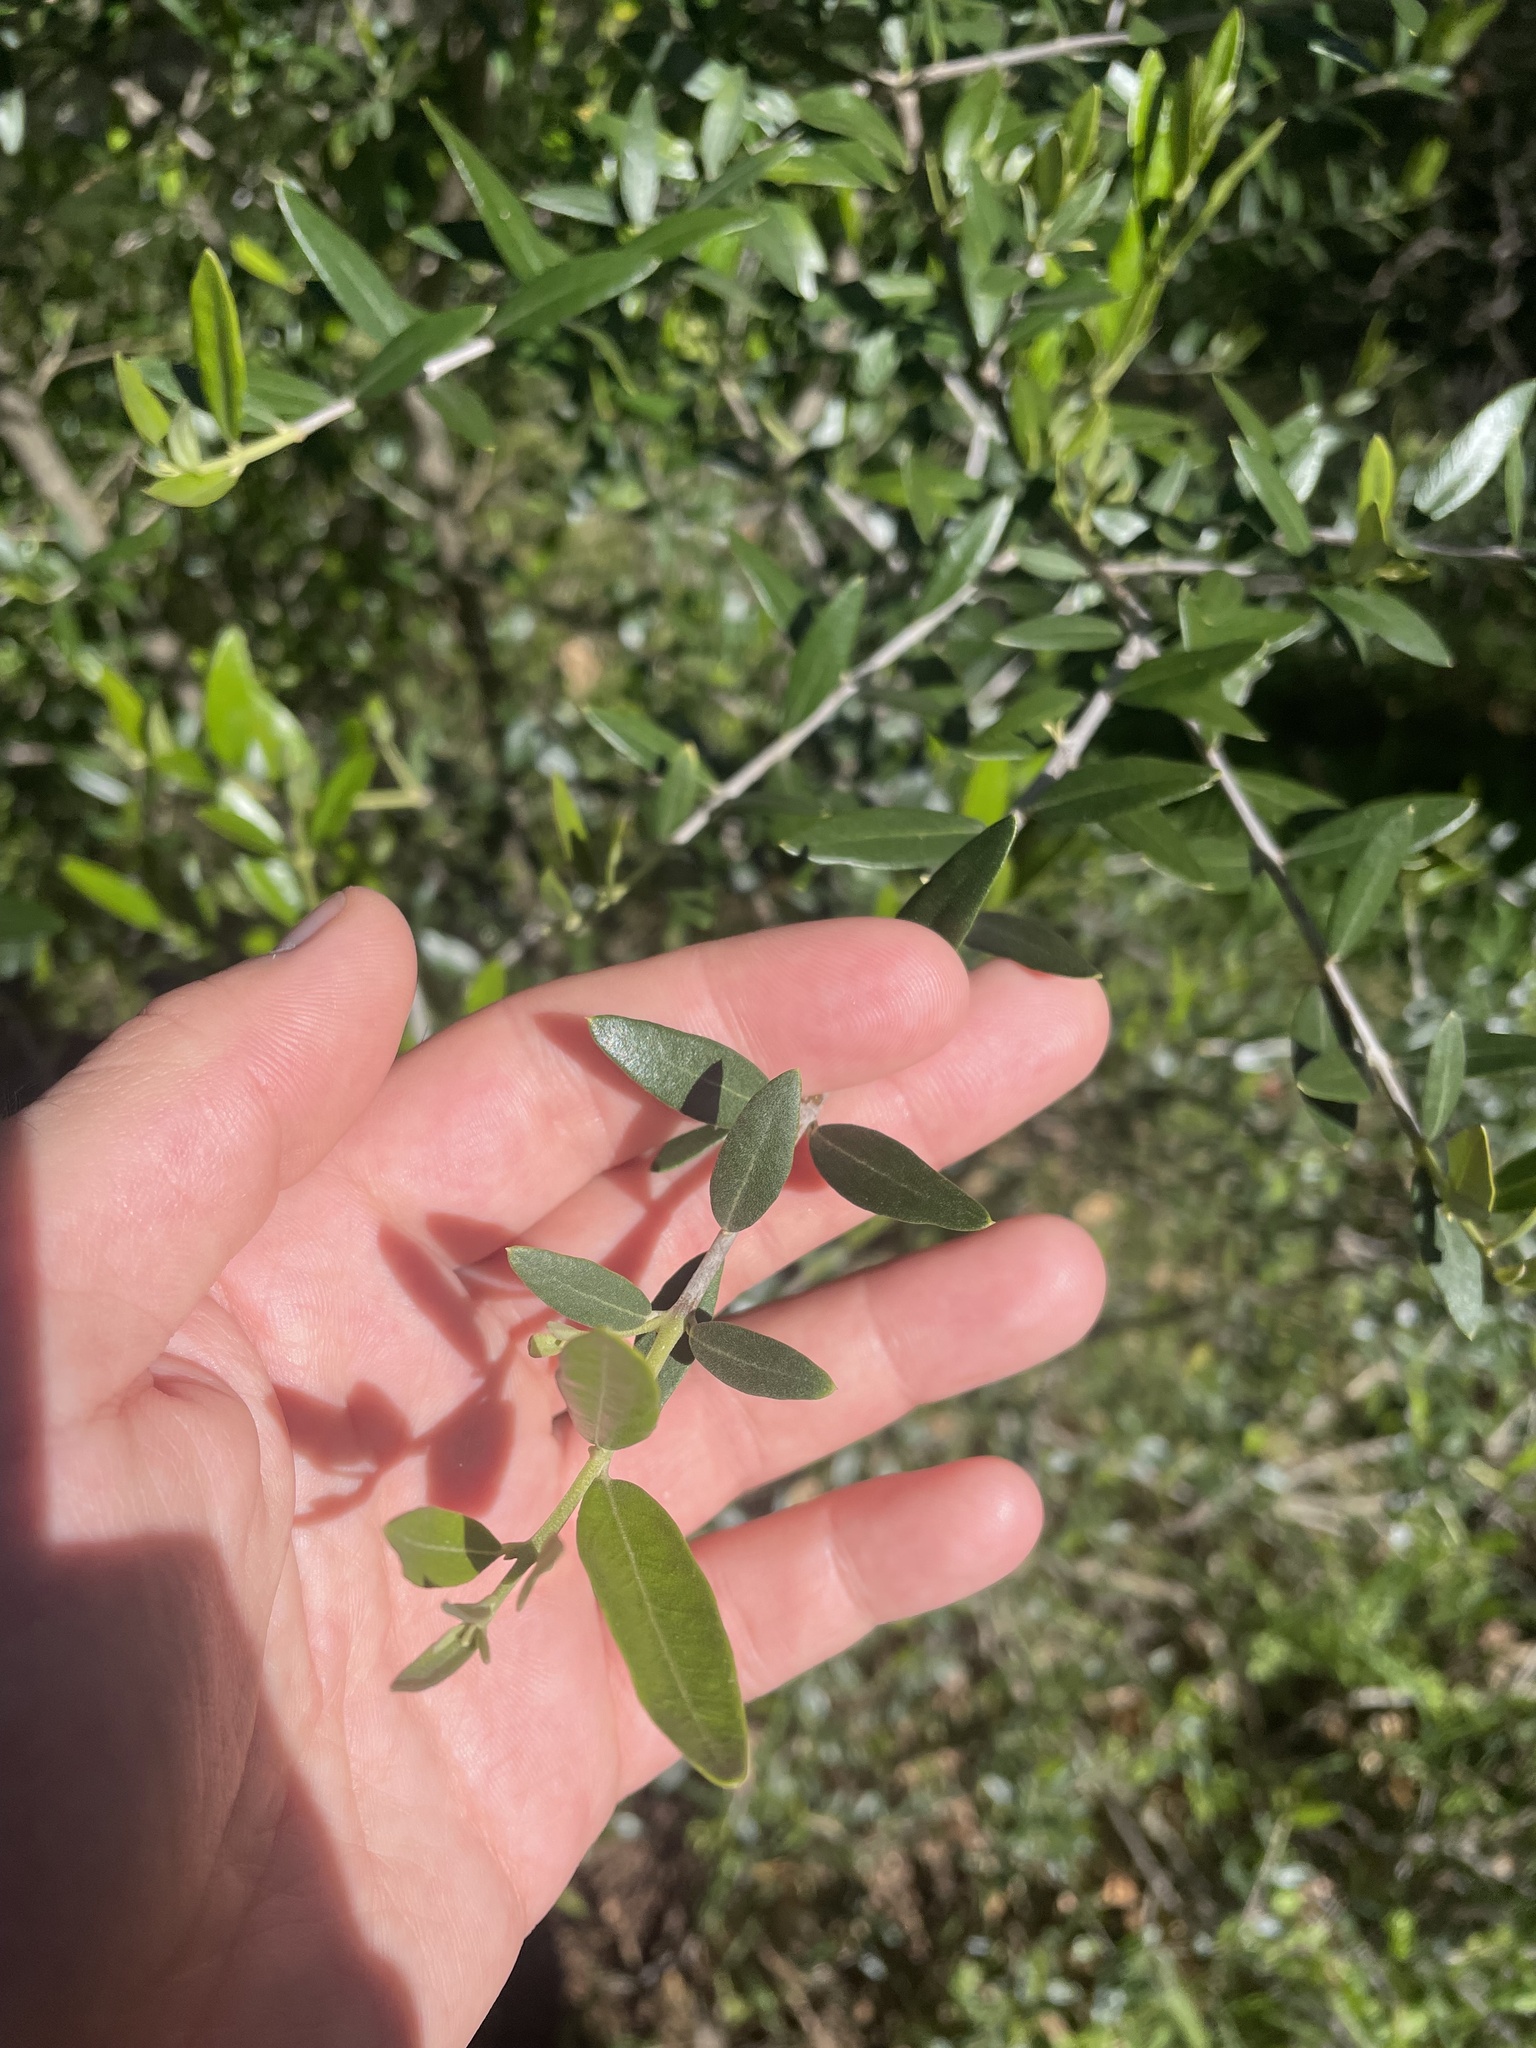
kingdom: Plantae
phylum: Tracheophyta
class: Magnoliopsida
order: Lamiales
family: Oleaceae
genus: Olea
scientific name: Olea europaea
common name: Olive
